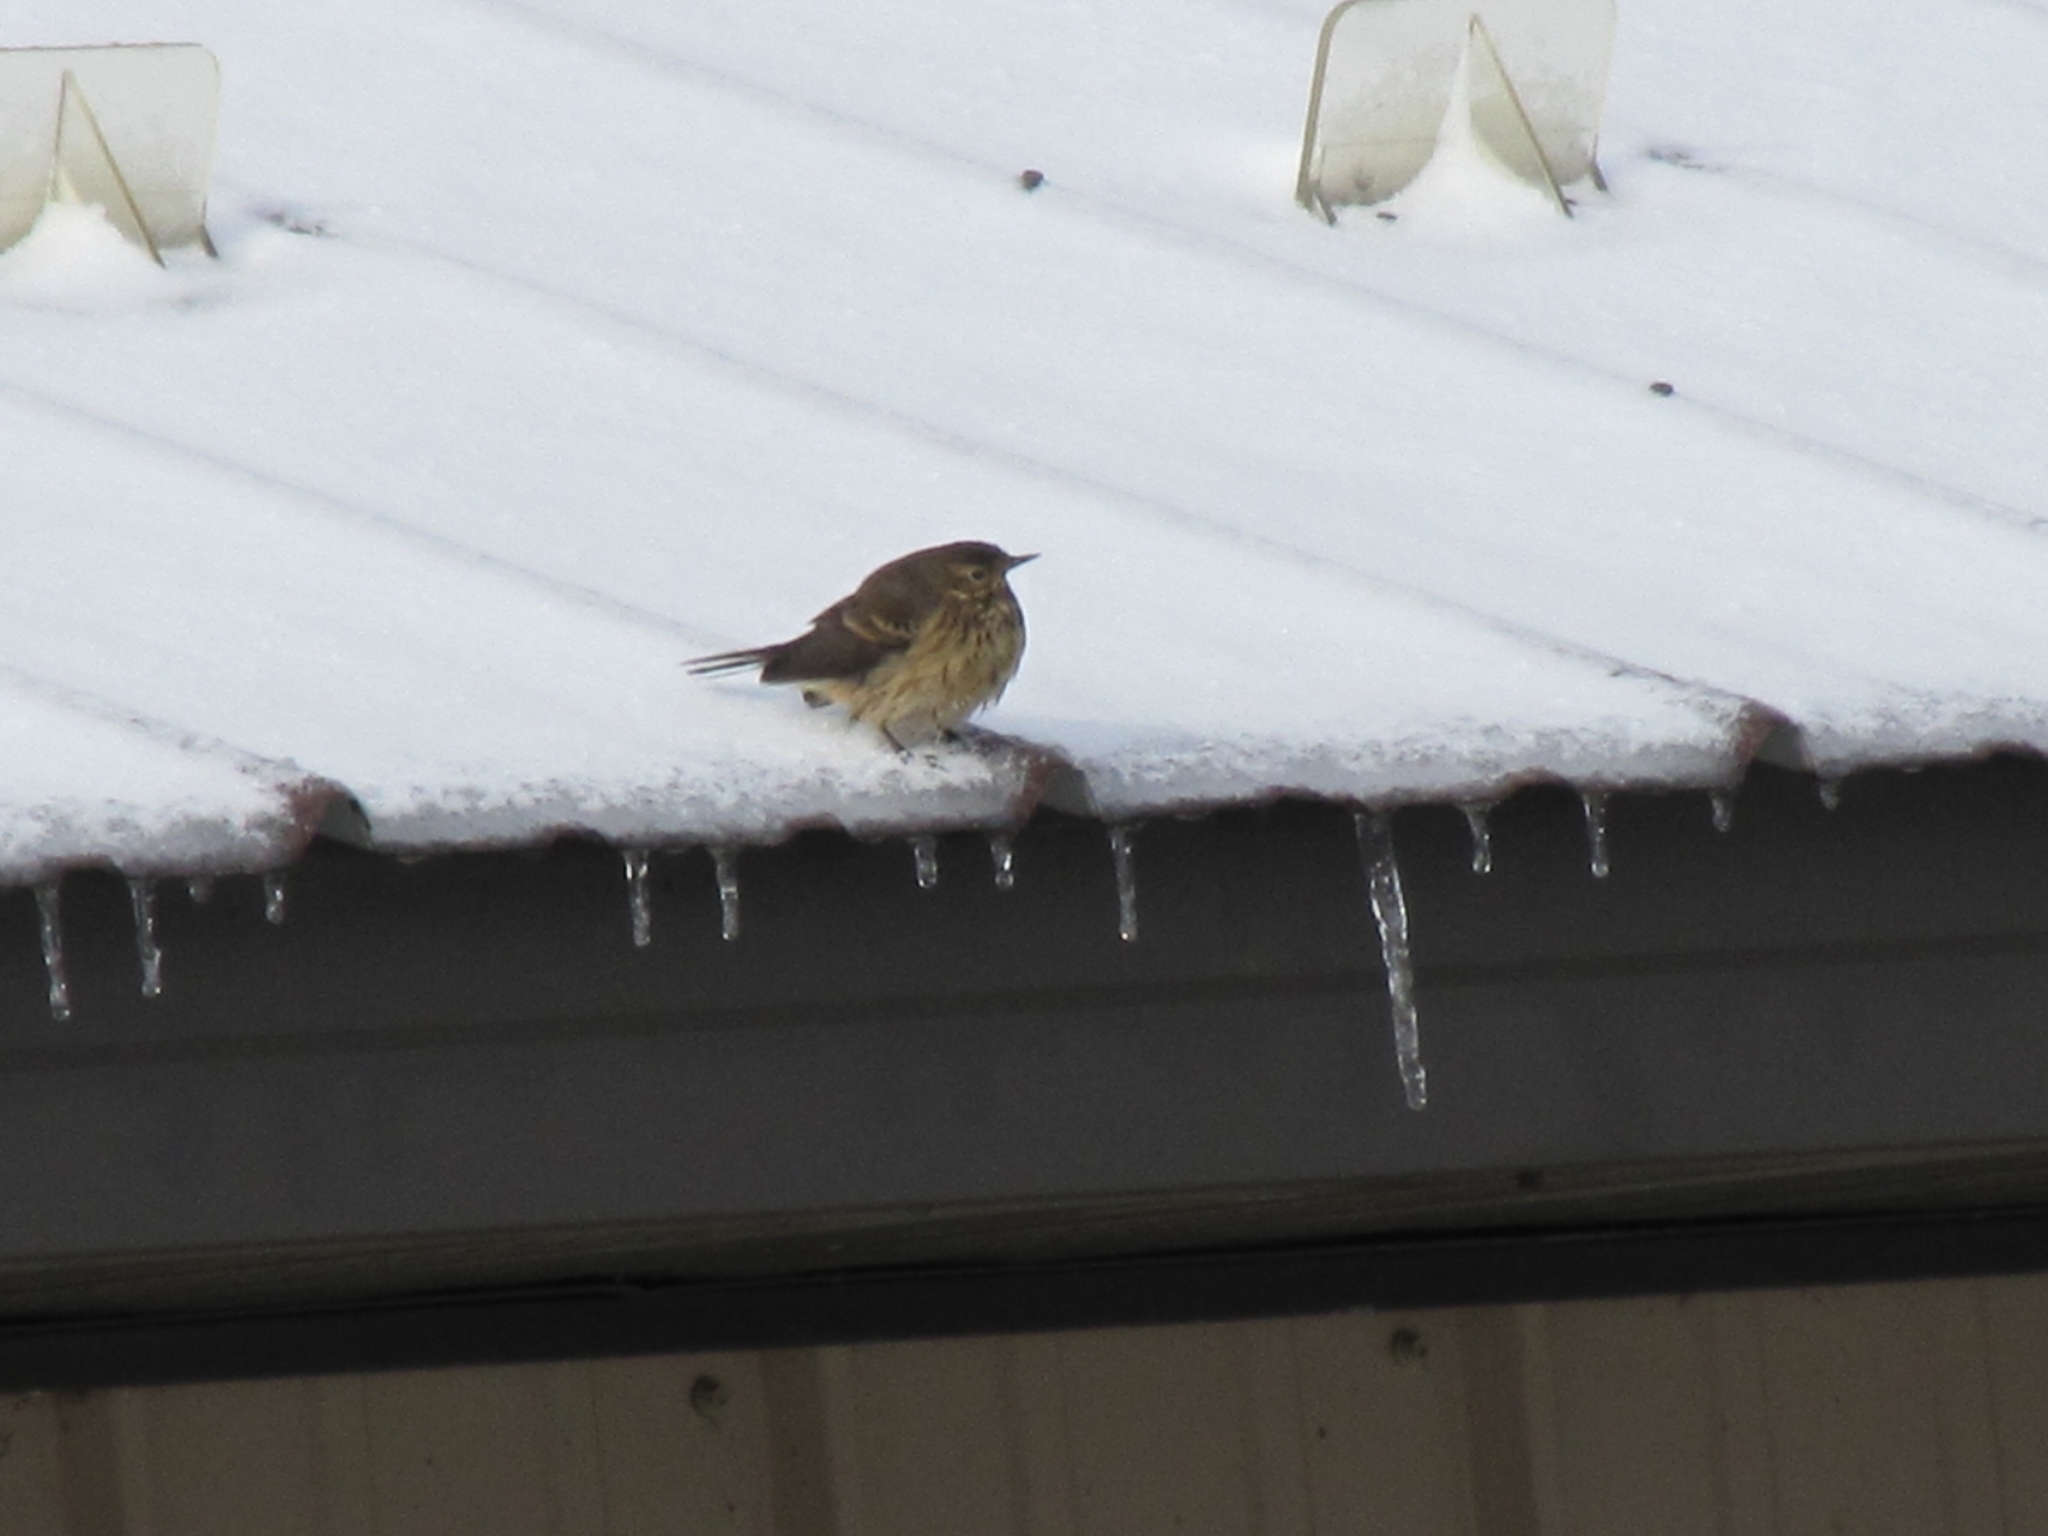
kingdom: Animalia
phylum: Chordata
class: Aves
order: Passeriformes
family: Motacillidae
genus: Anthus
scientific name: Anthus rubescens
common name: Buff-bellied pipit
